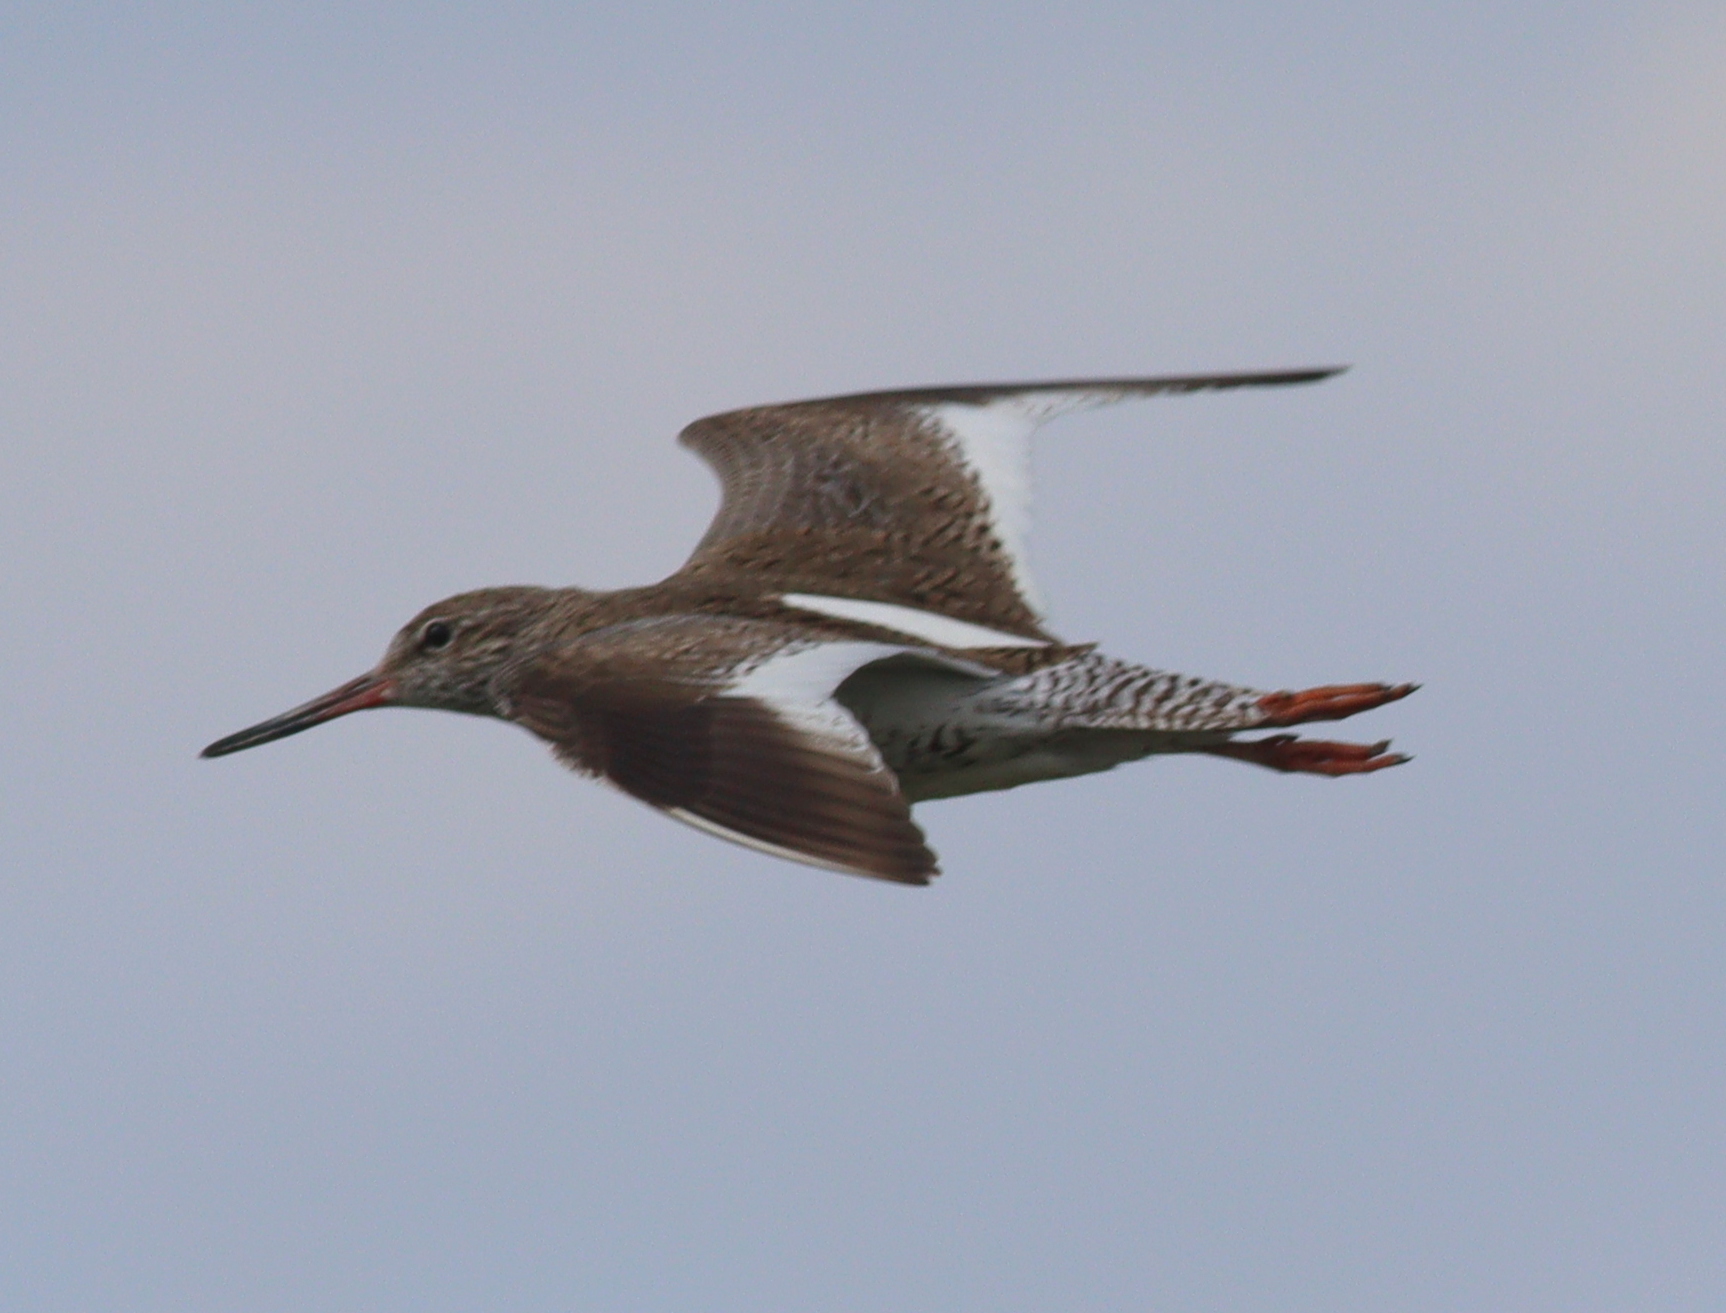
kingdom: Animalia
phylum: Chordata
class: Aves
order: Charadriiformes
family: Scolopacidae
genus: Tringa
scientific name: Tringa totanus
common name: Common redshank
